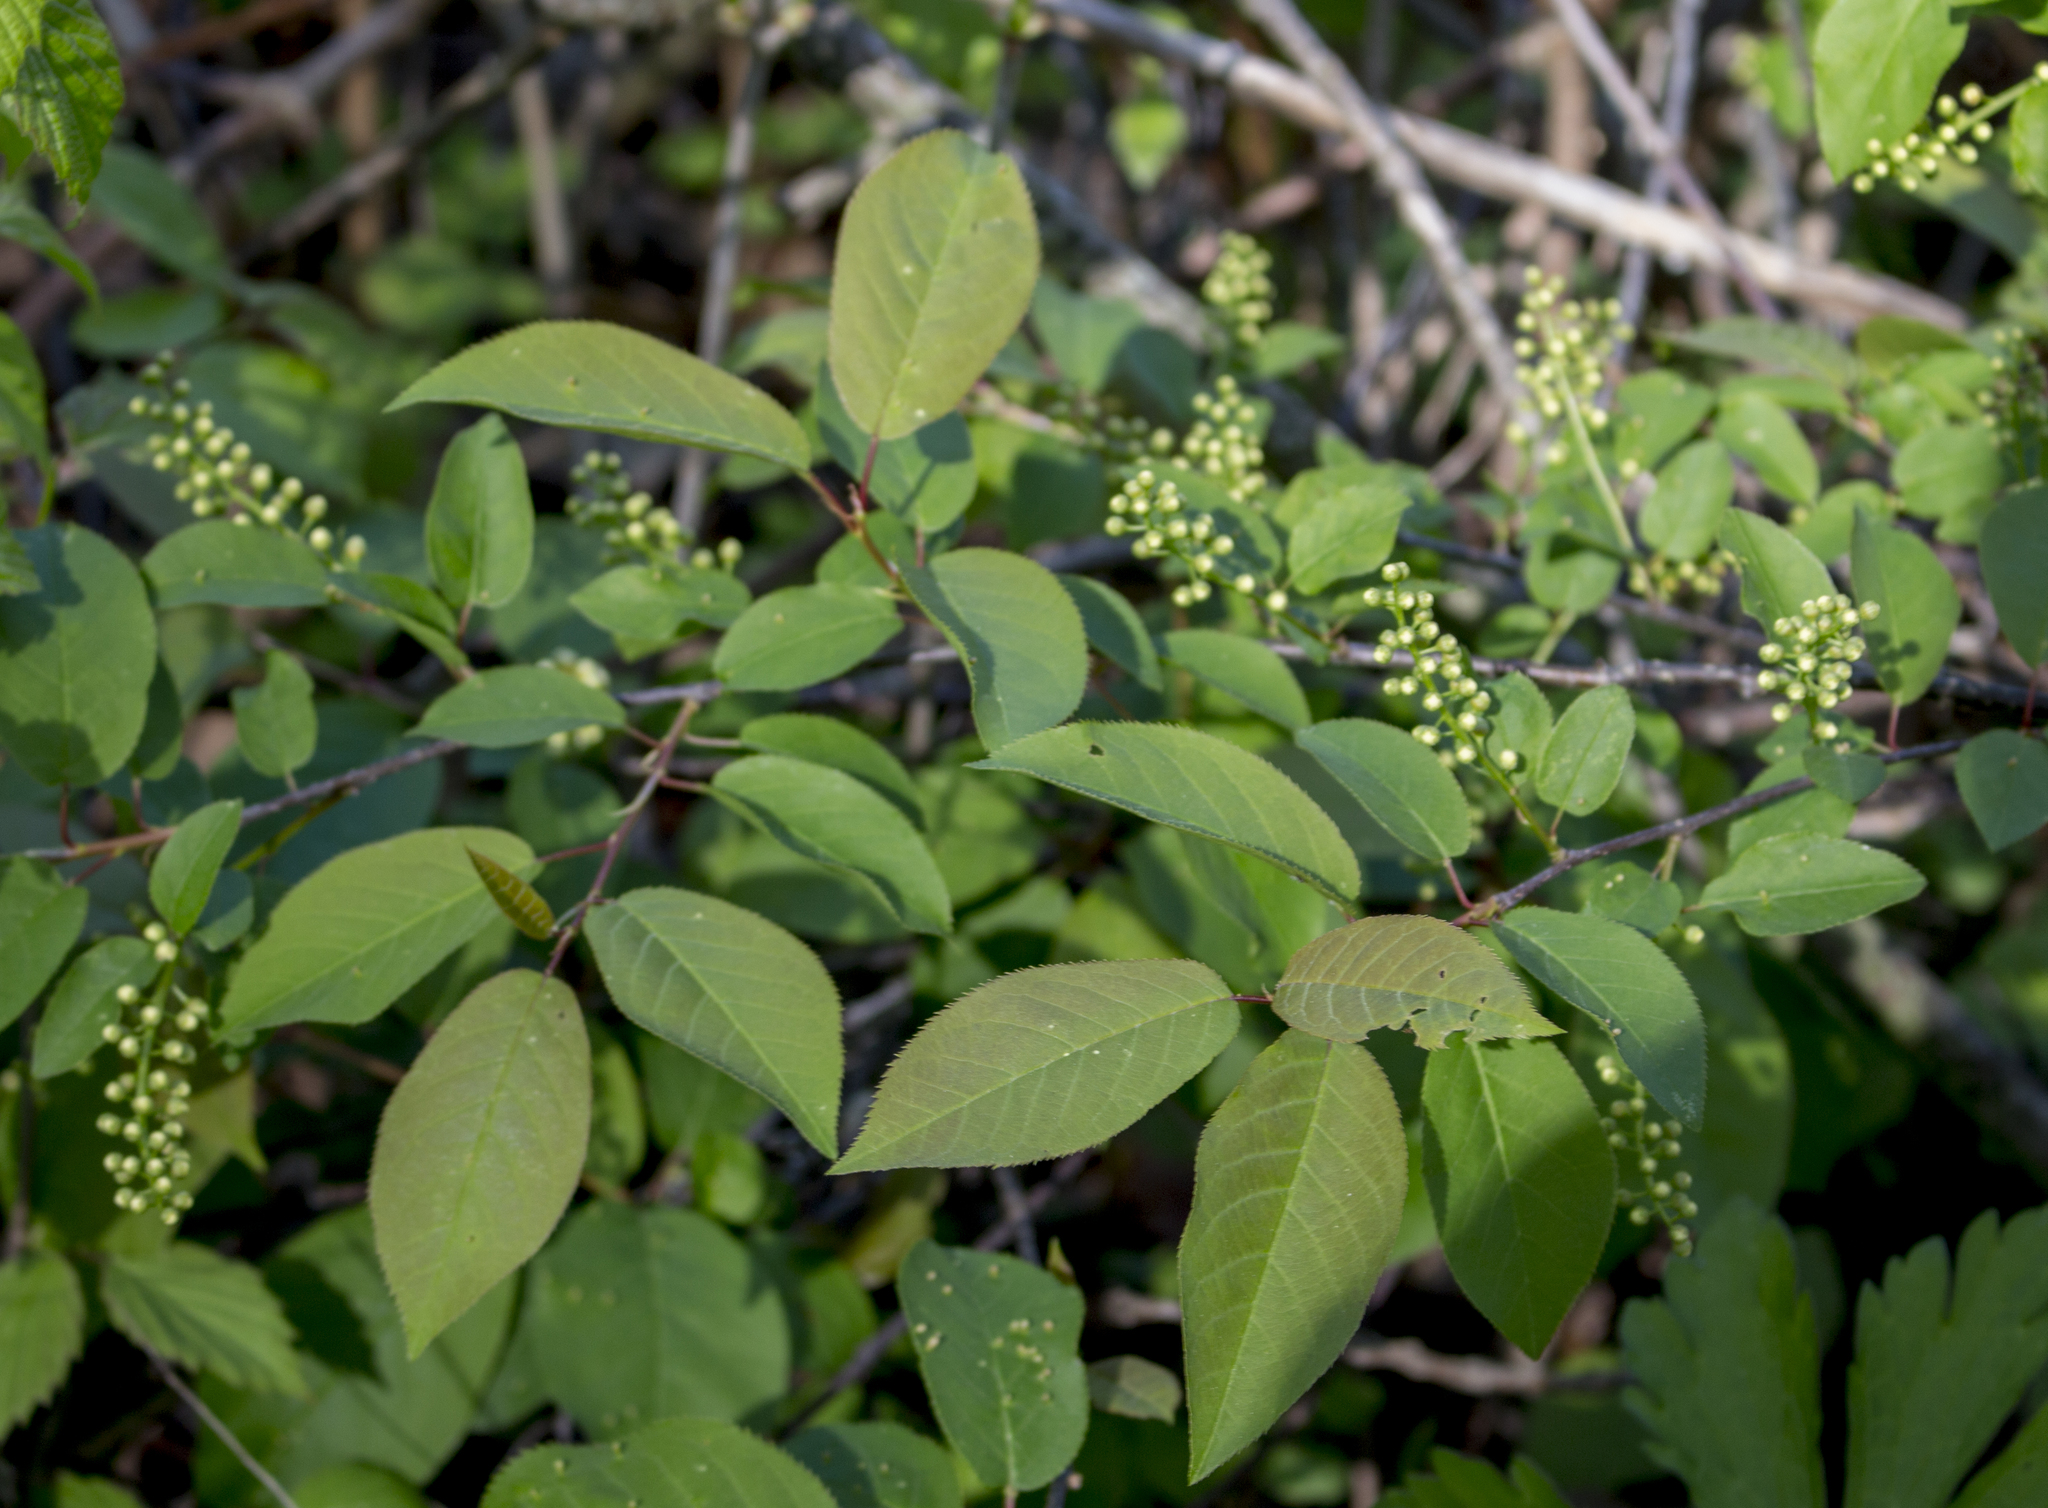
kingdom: Plantae
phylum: Tracheophyta
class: Magnoliopsida
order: Rosales
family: Rosaceae
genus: Prunus
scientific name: Prunus virginiana
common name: Chokecherry
